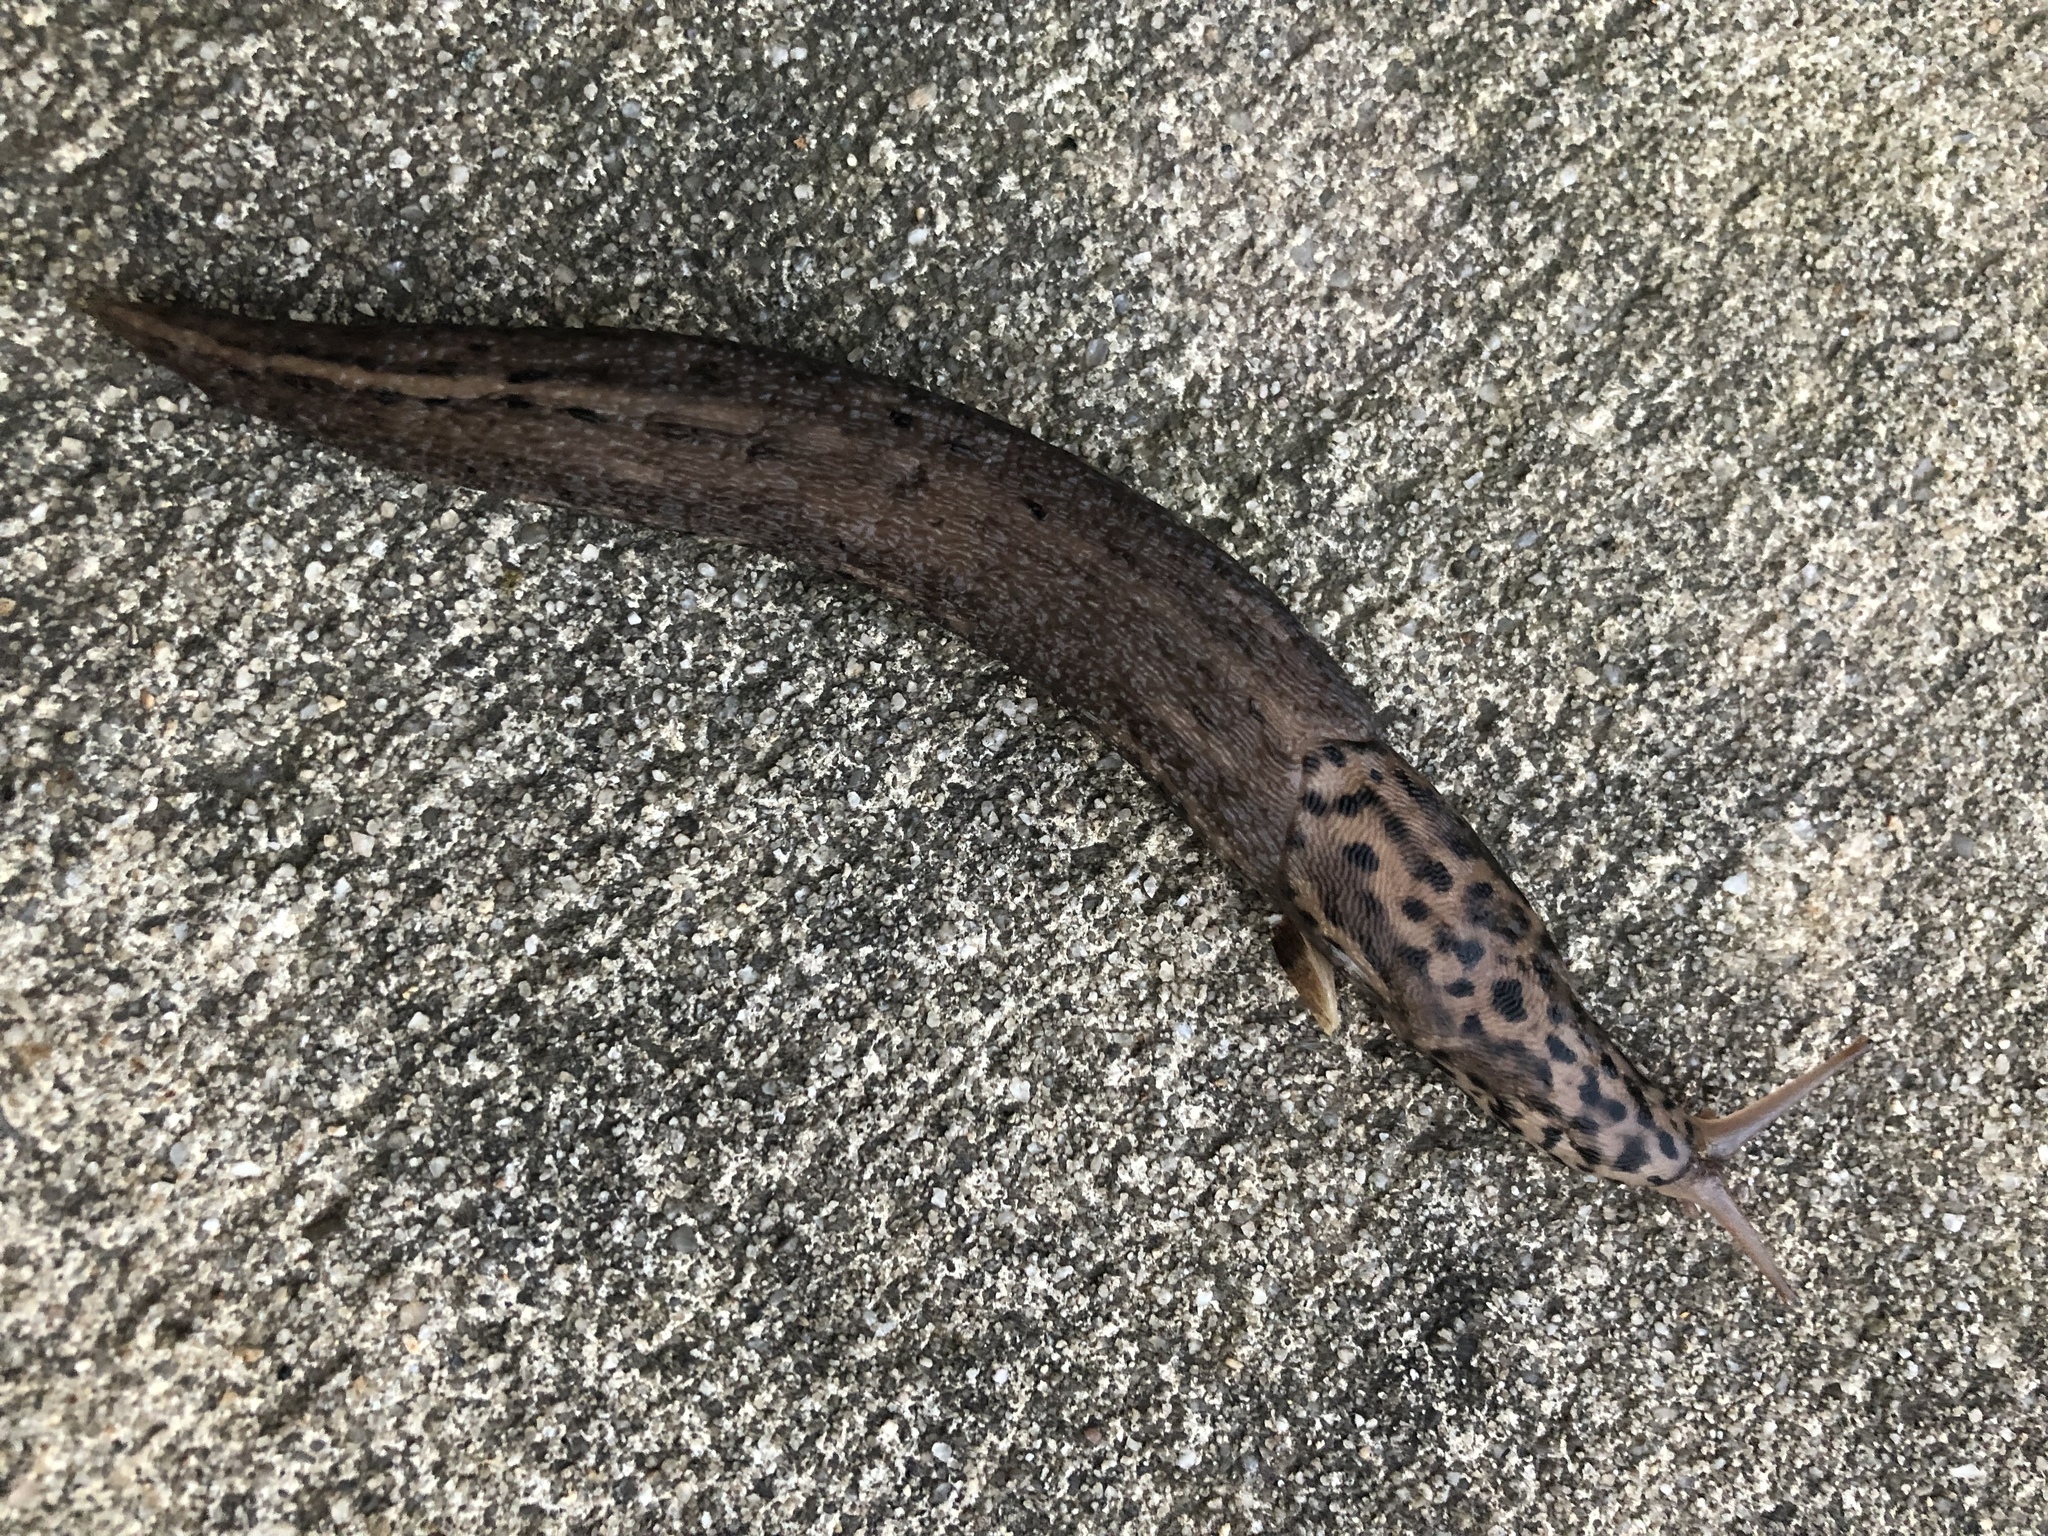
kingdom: Animalia
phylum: Mollusca
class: Gastropoda
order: Stylommatophora
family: Limacidae
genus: Limax
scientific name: Limax maximus
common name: Great grey slug
